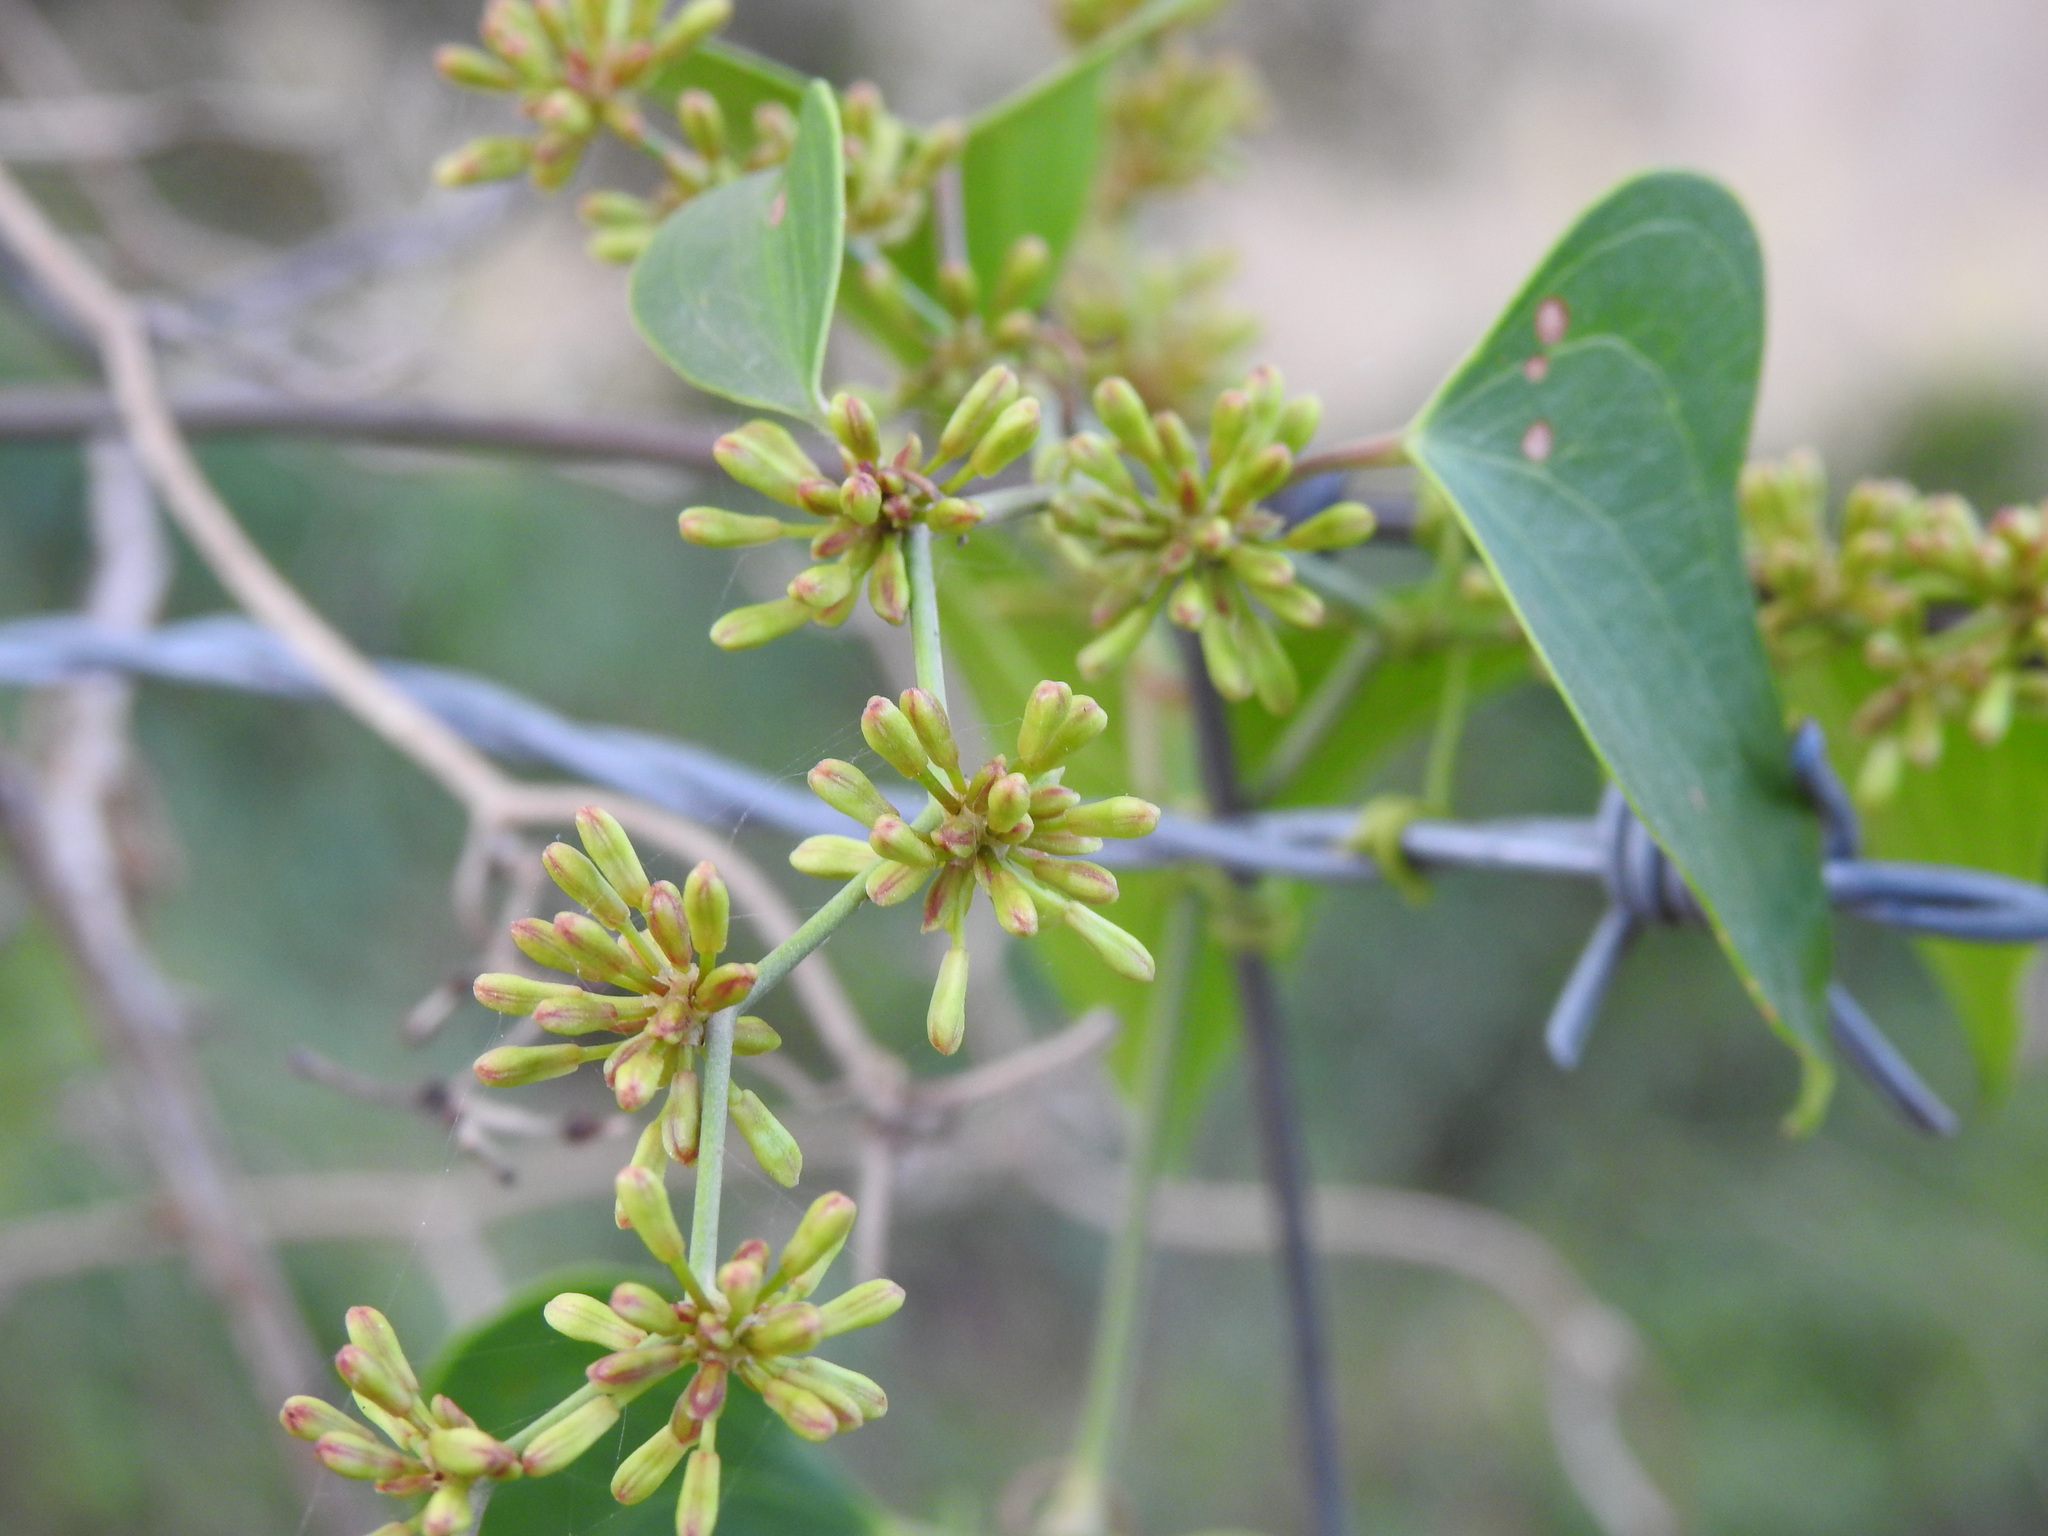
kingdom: Plantae
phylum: Tracheophyta
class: Liliopsida
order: Liliales
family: Smilacaceae
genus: Smilax
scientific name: Smilax aspera
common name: Common smilax
